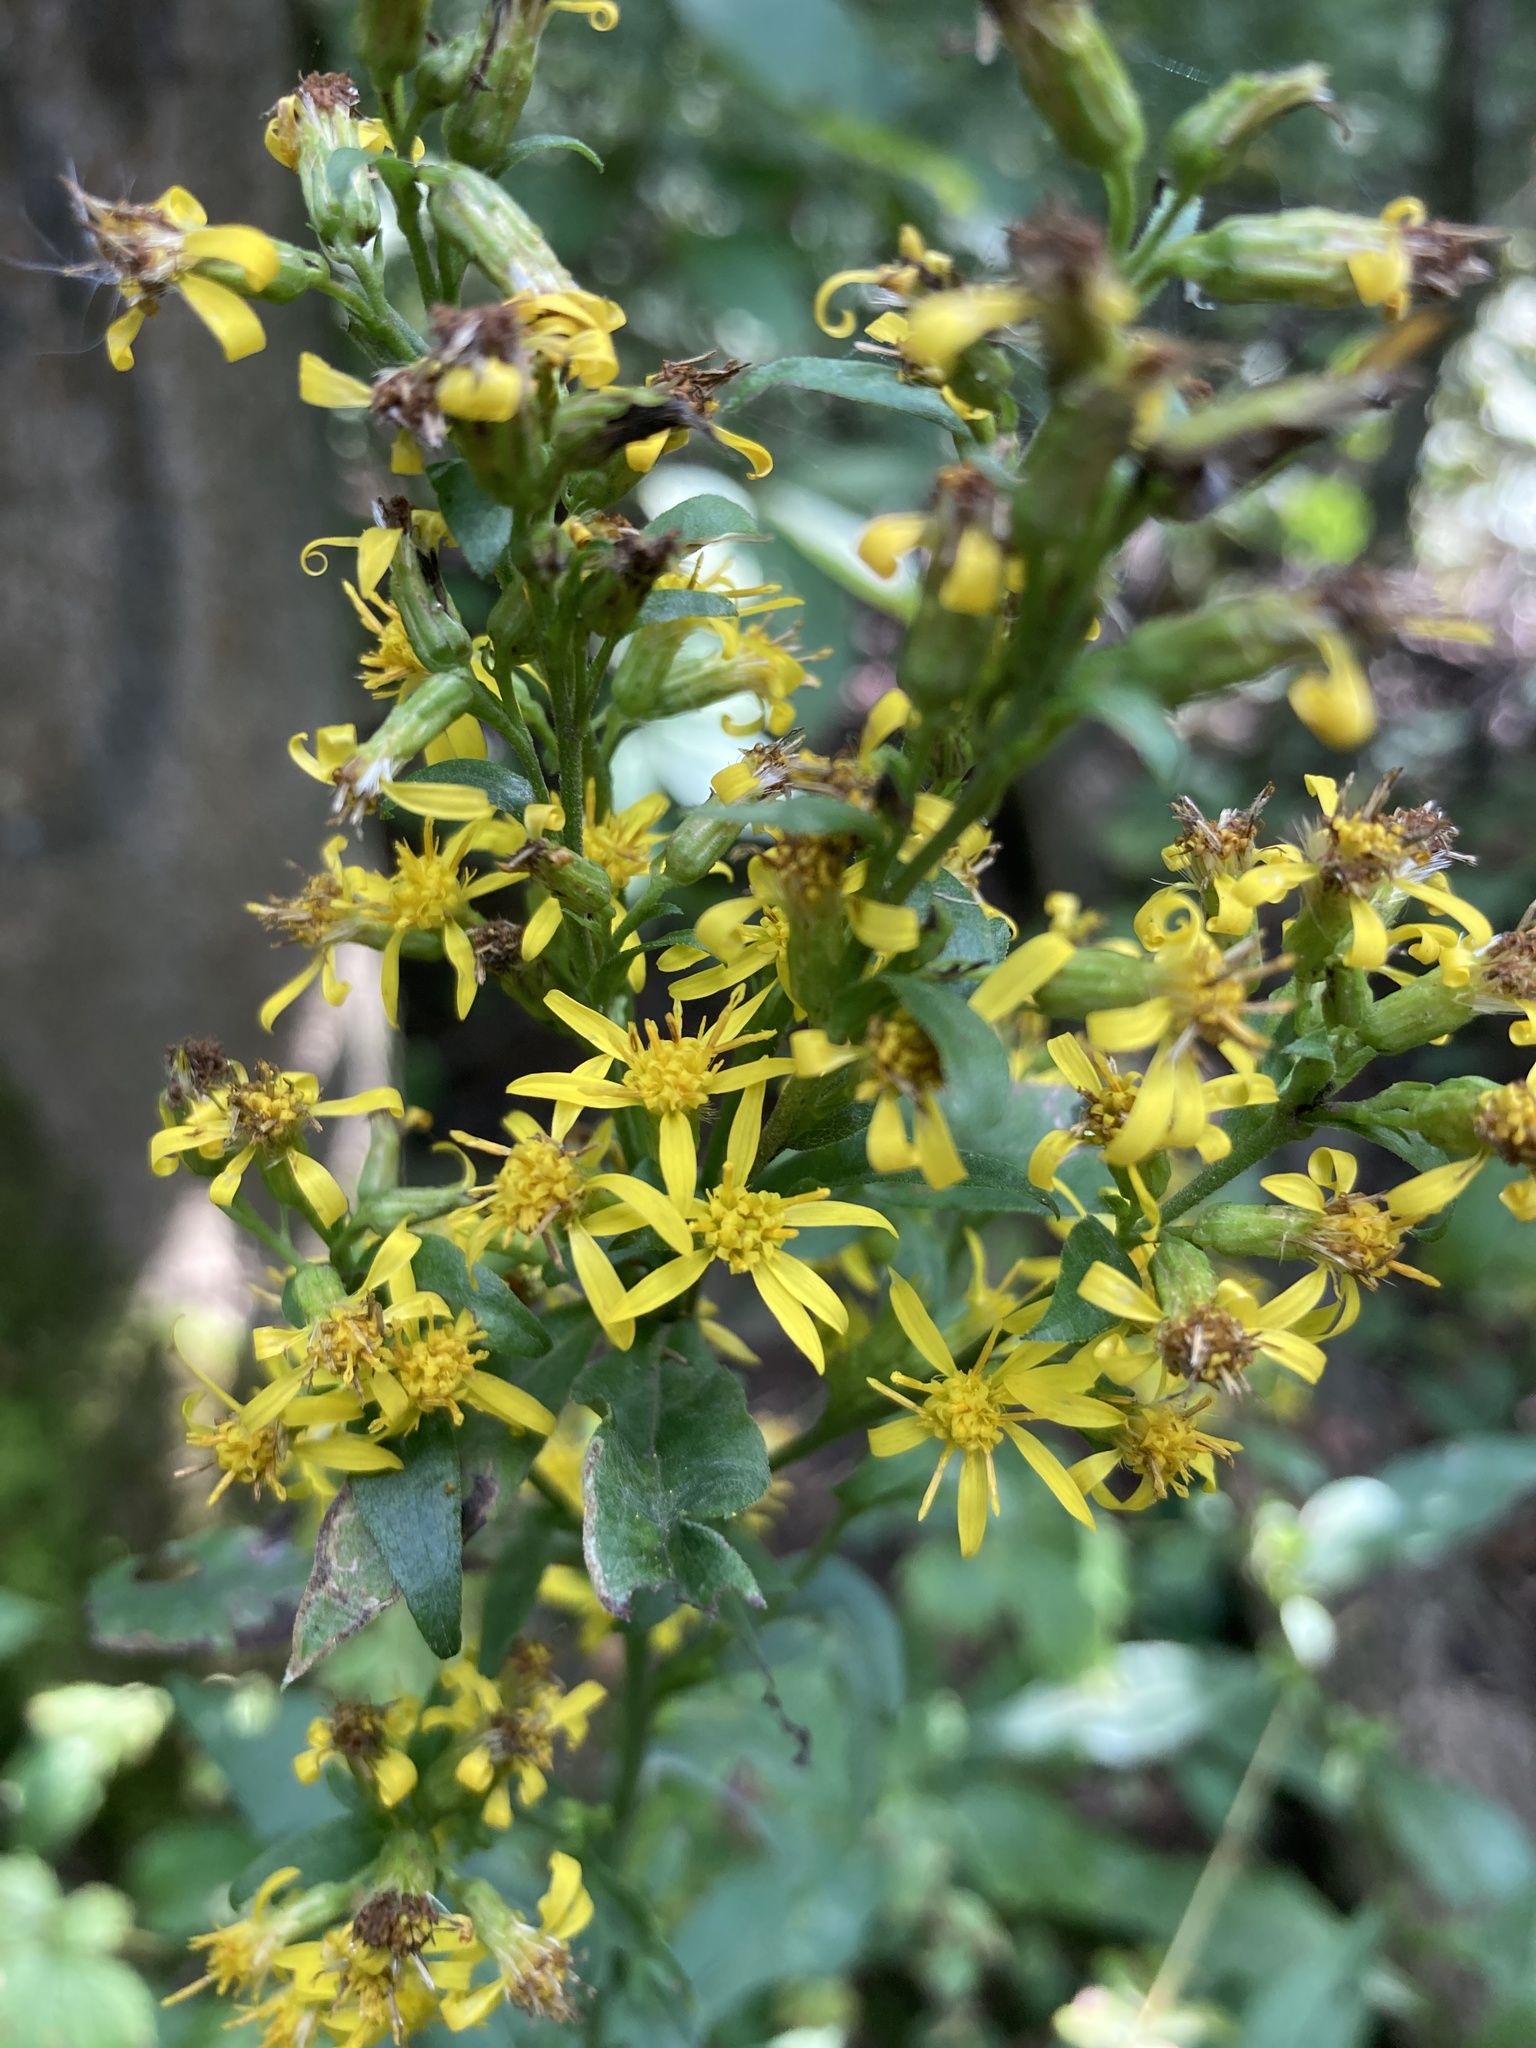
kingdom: Plantae
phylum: Tracheophyta
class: Magnoliopsida
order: Asterales
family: Asteraceae
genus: Solidago
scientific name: Solidago virgaurea
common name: Goldenrod
